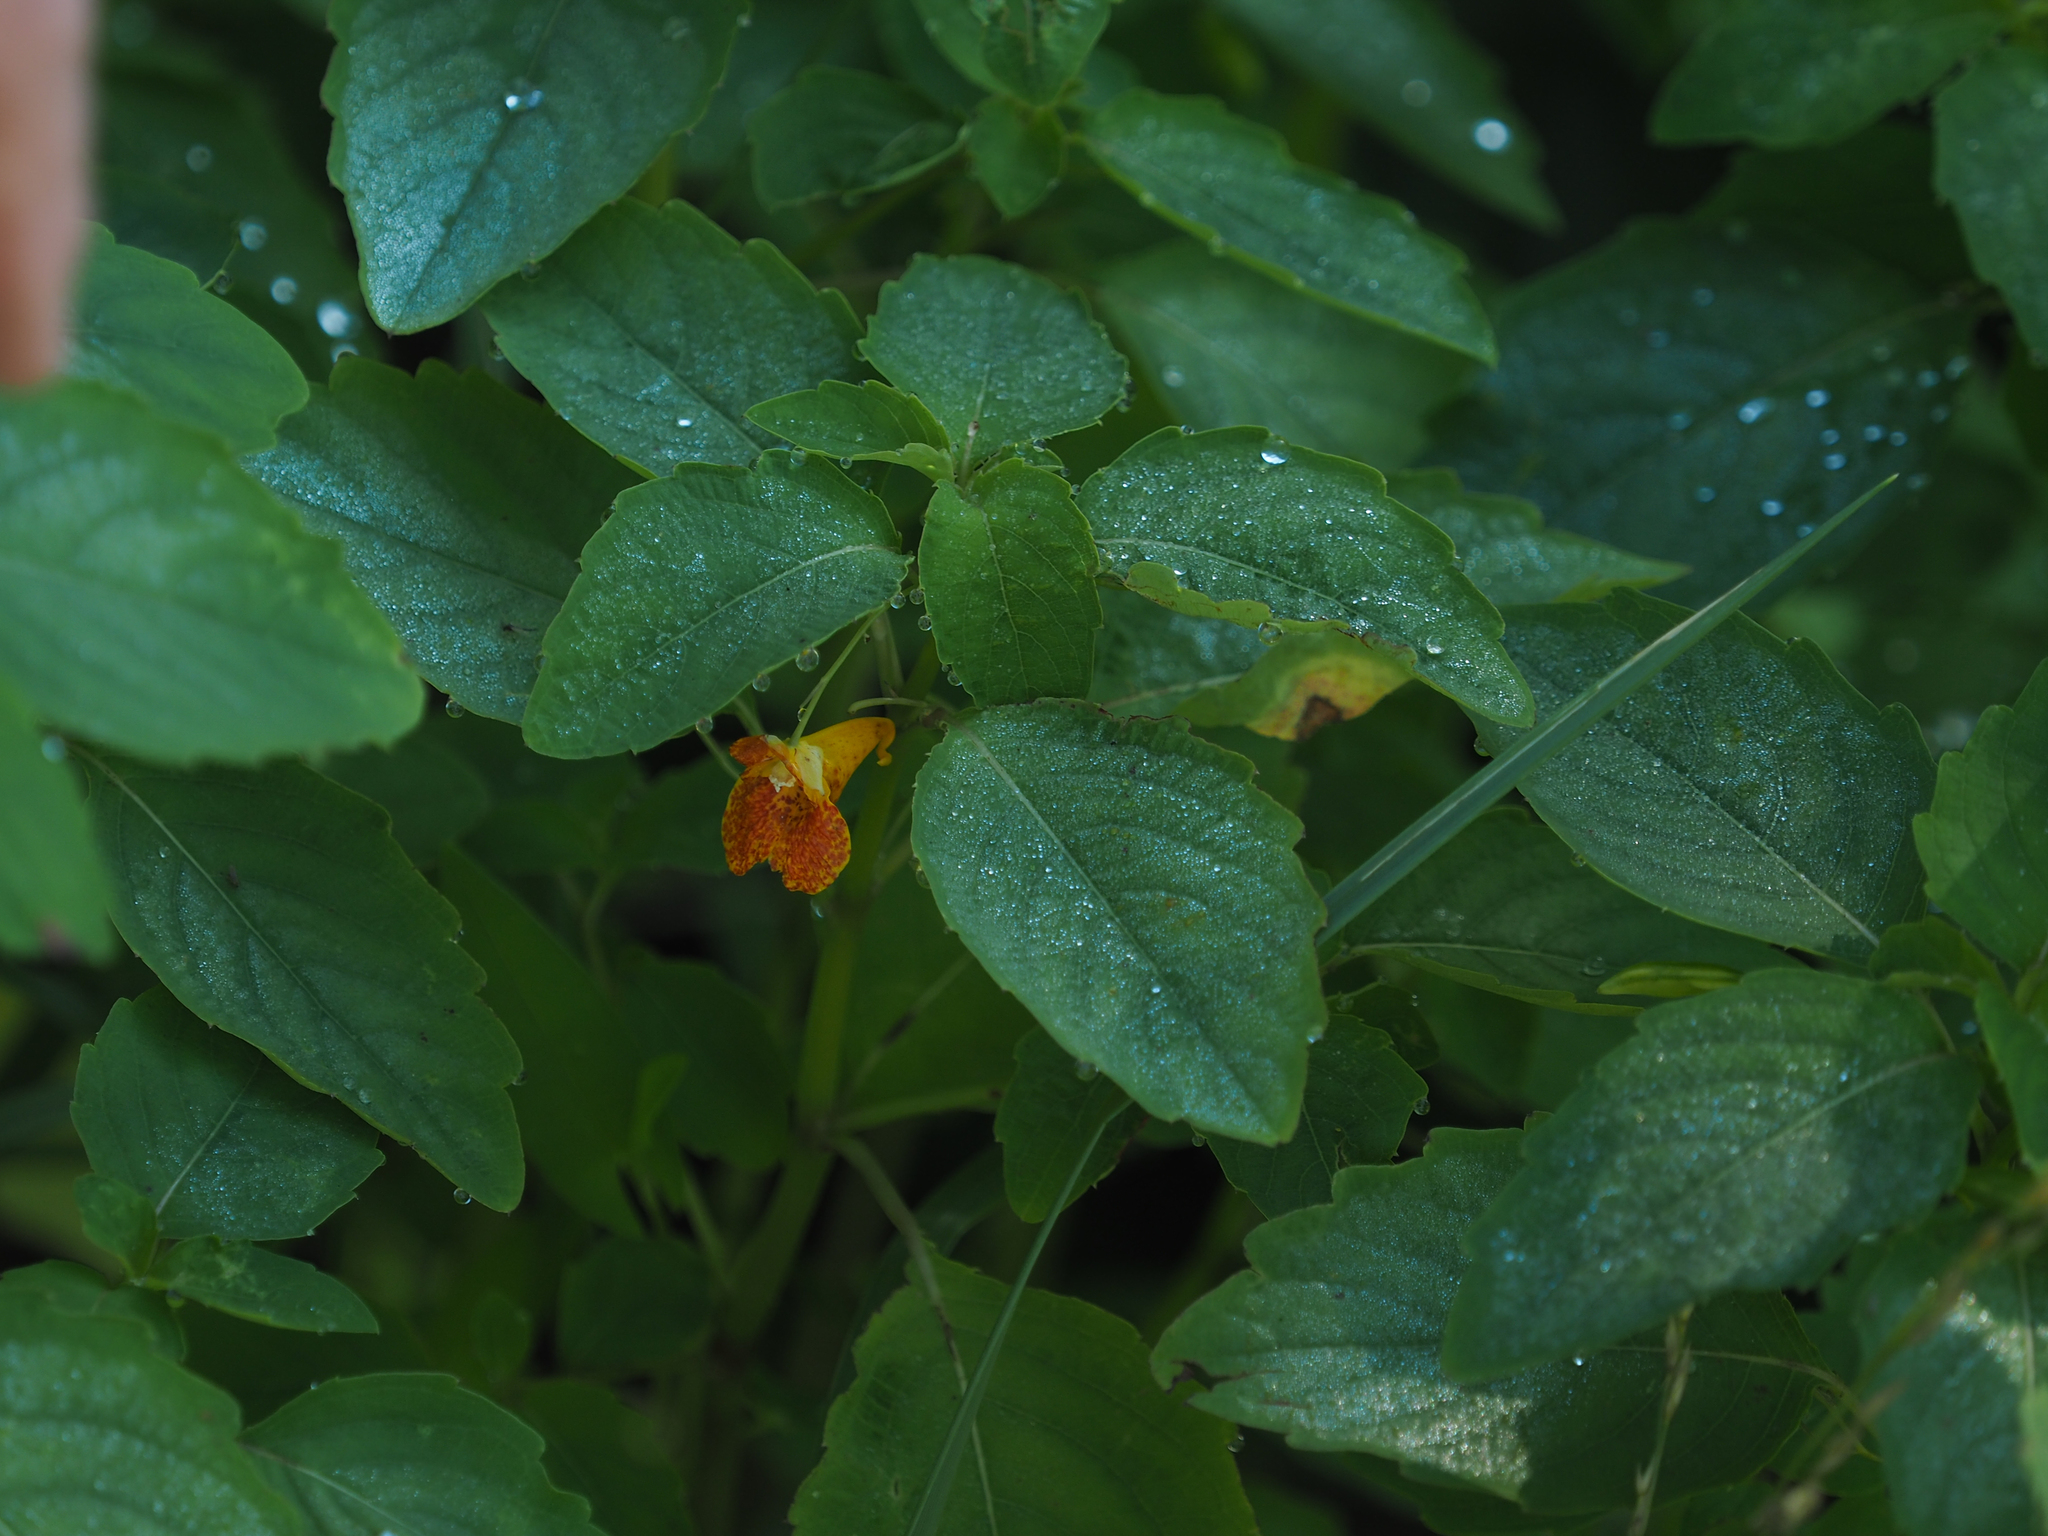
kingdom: Plantae
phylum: Tracheophyta
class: Magnoliopsida
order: Ericales
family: Balsaminaceae
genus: Impatiens
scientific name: Impatiens capensis
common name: Orange balsam
